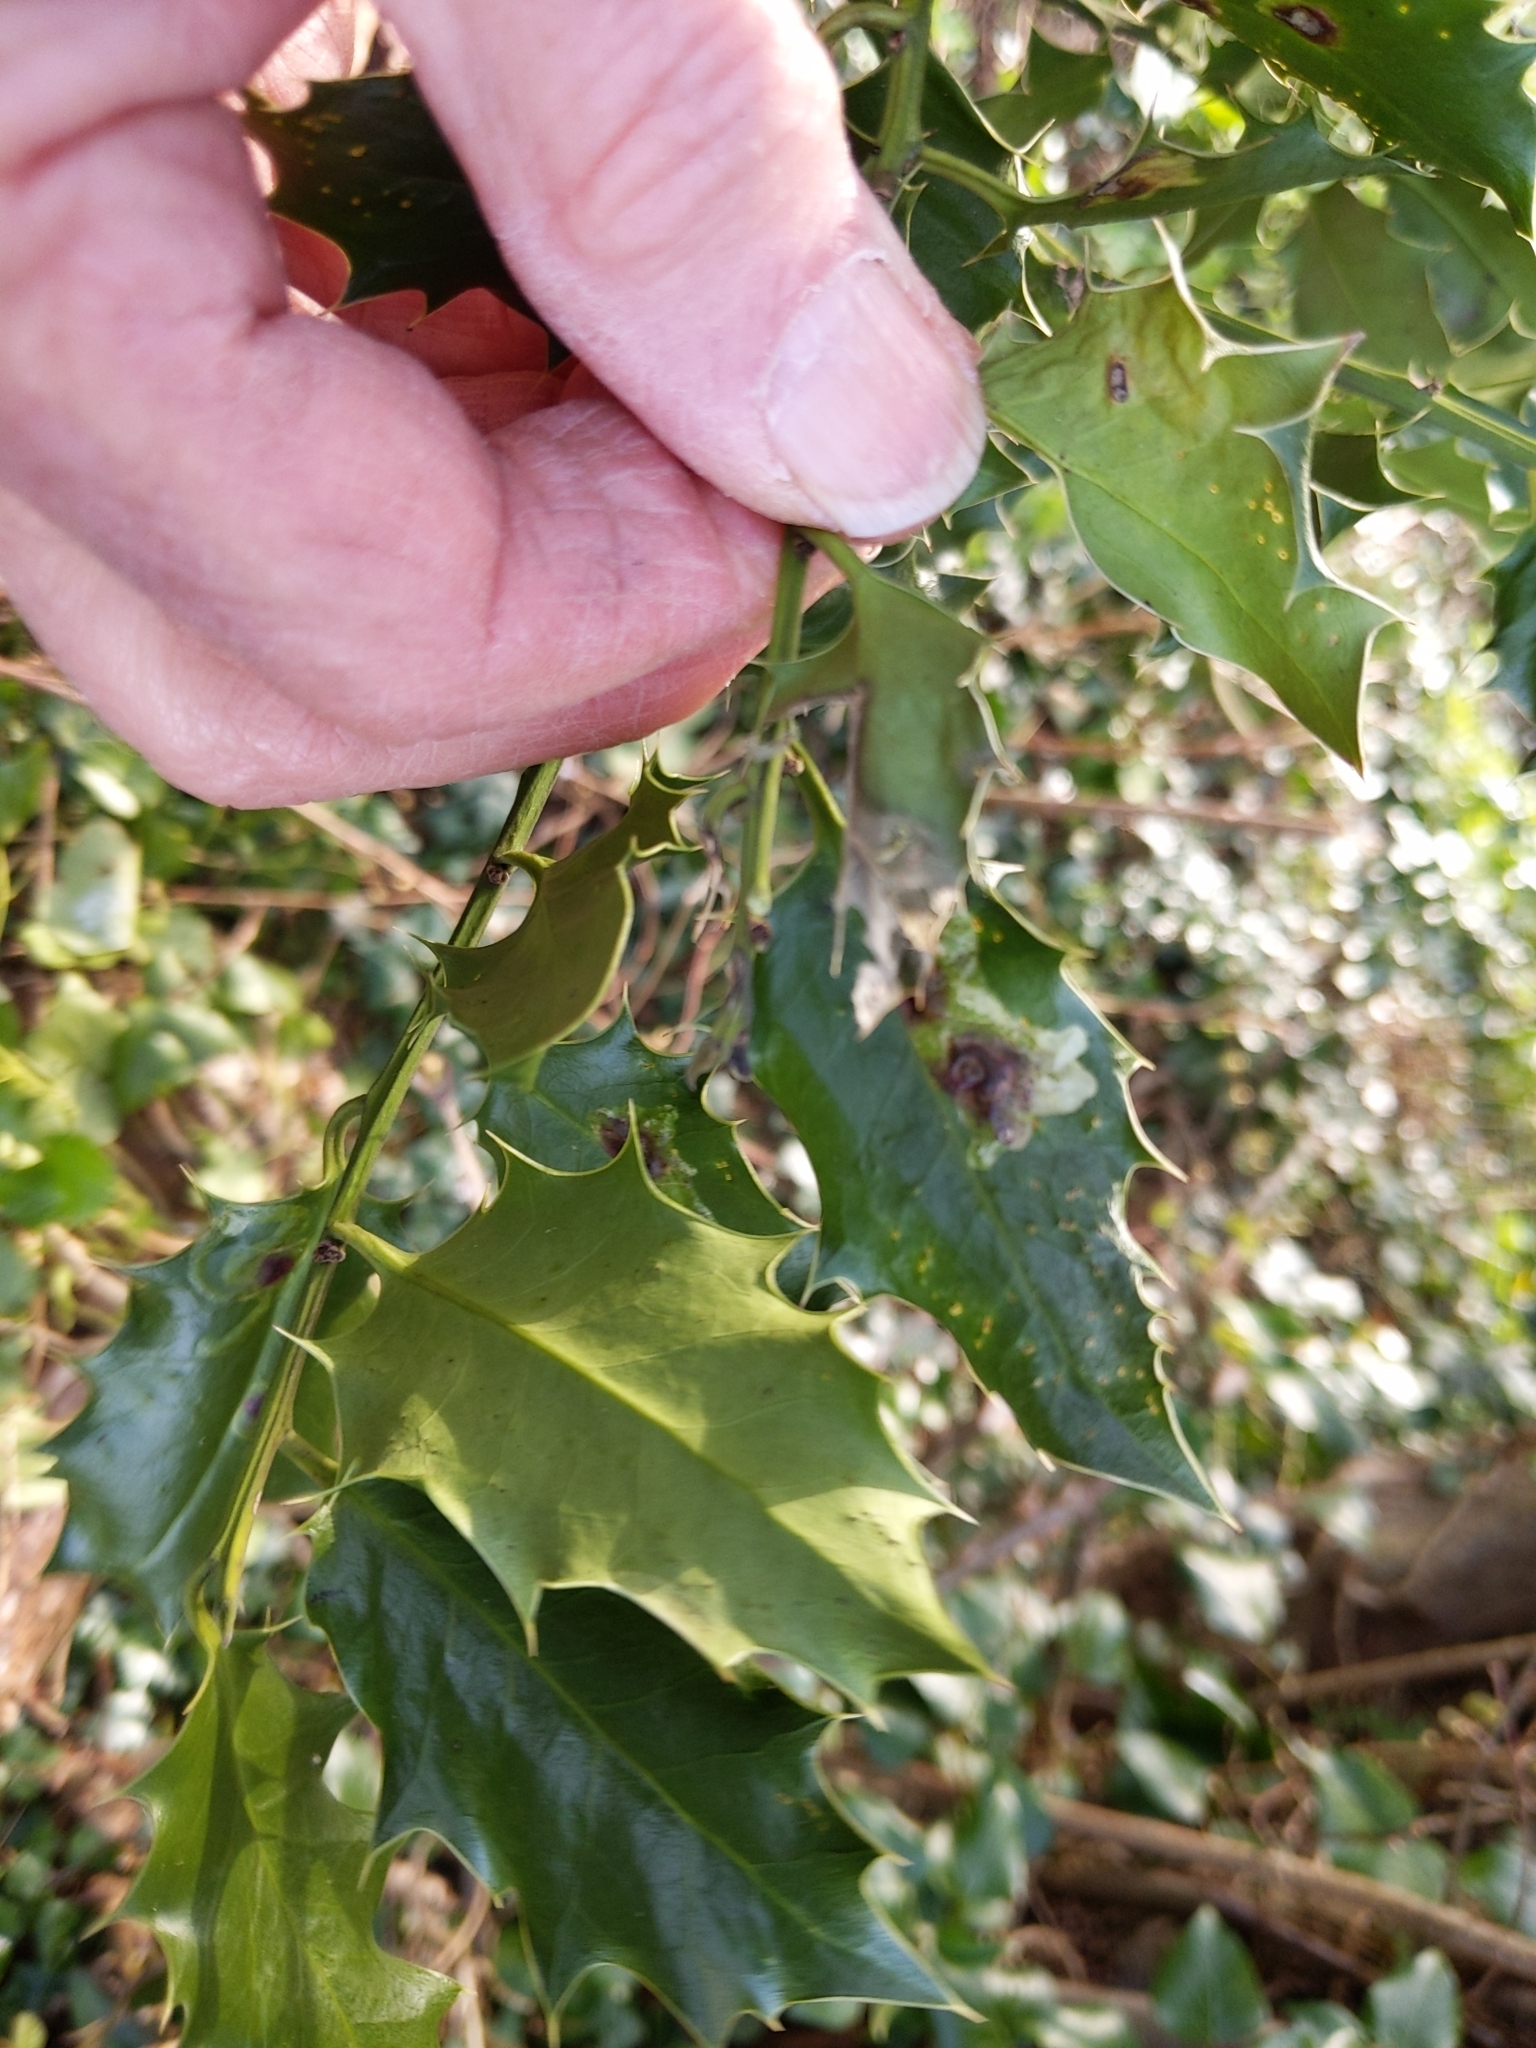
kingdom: Animalia
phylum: Arthropoda
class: Insecta
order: Diptera
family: Agromyzidae
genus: Phytomyza
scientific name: Phytomyza ilicis
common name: Holly leafminer
